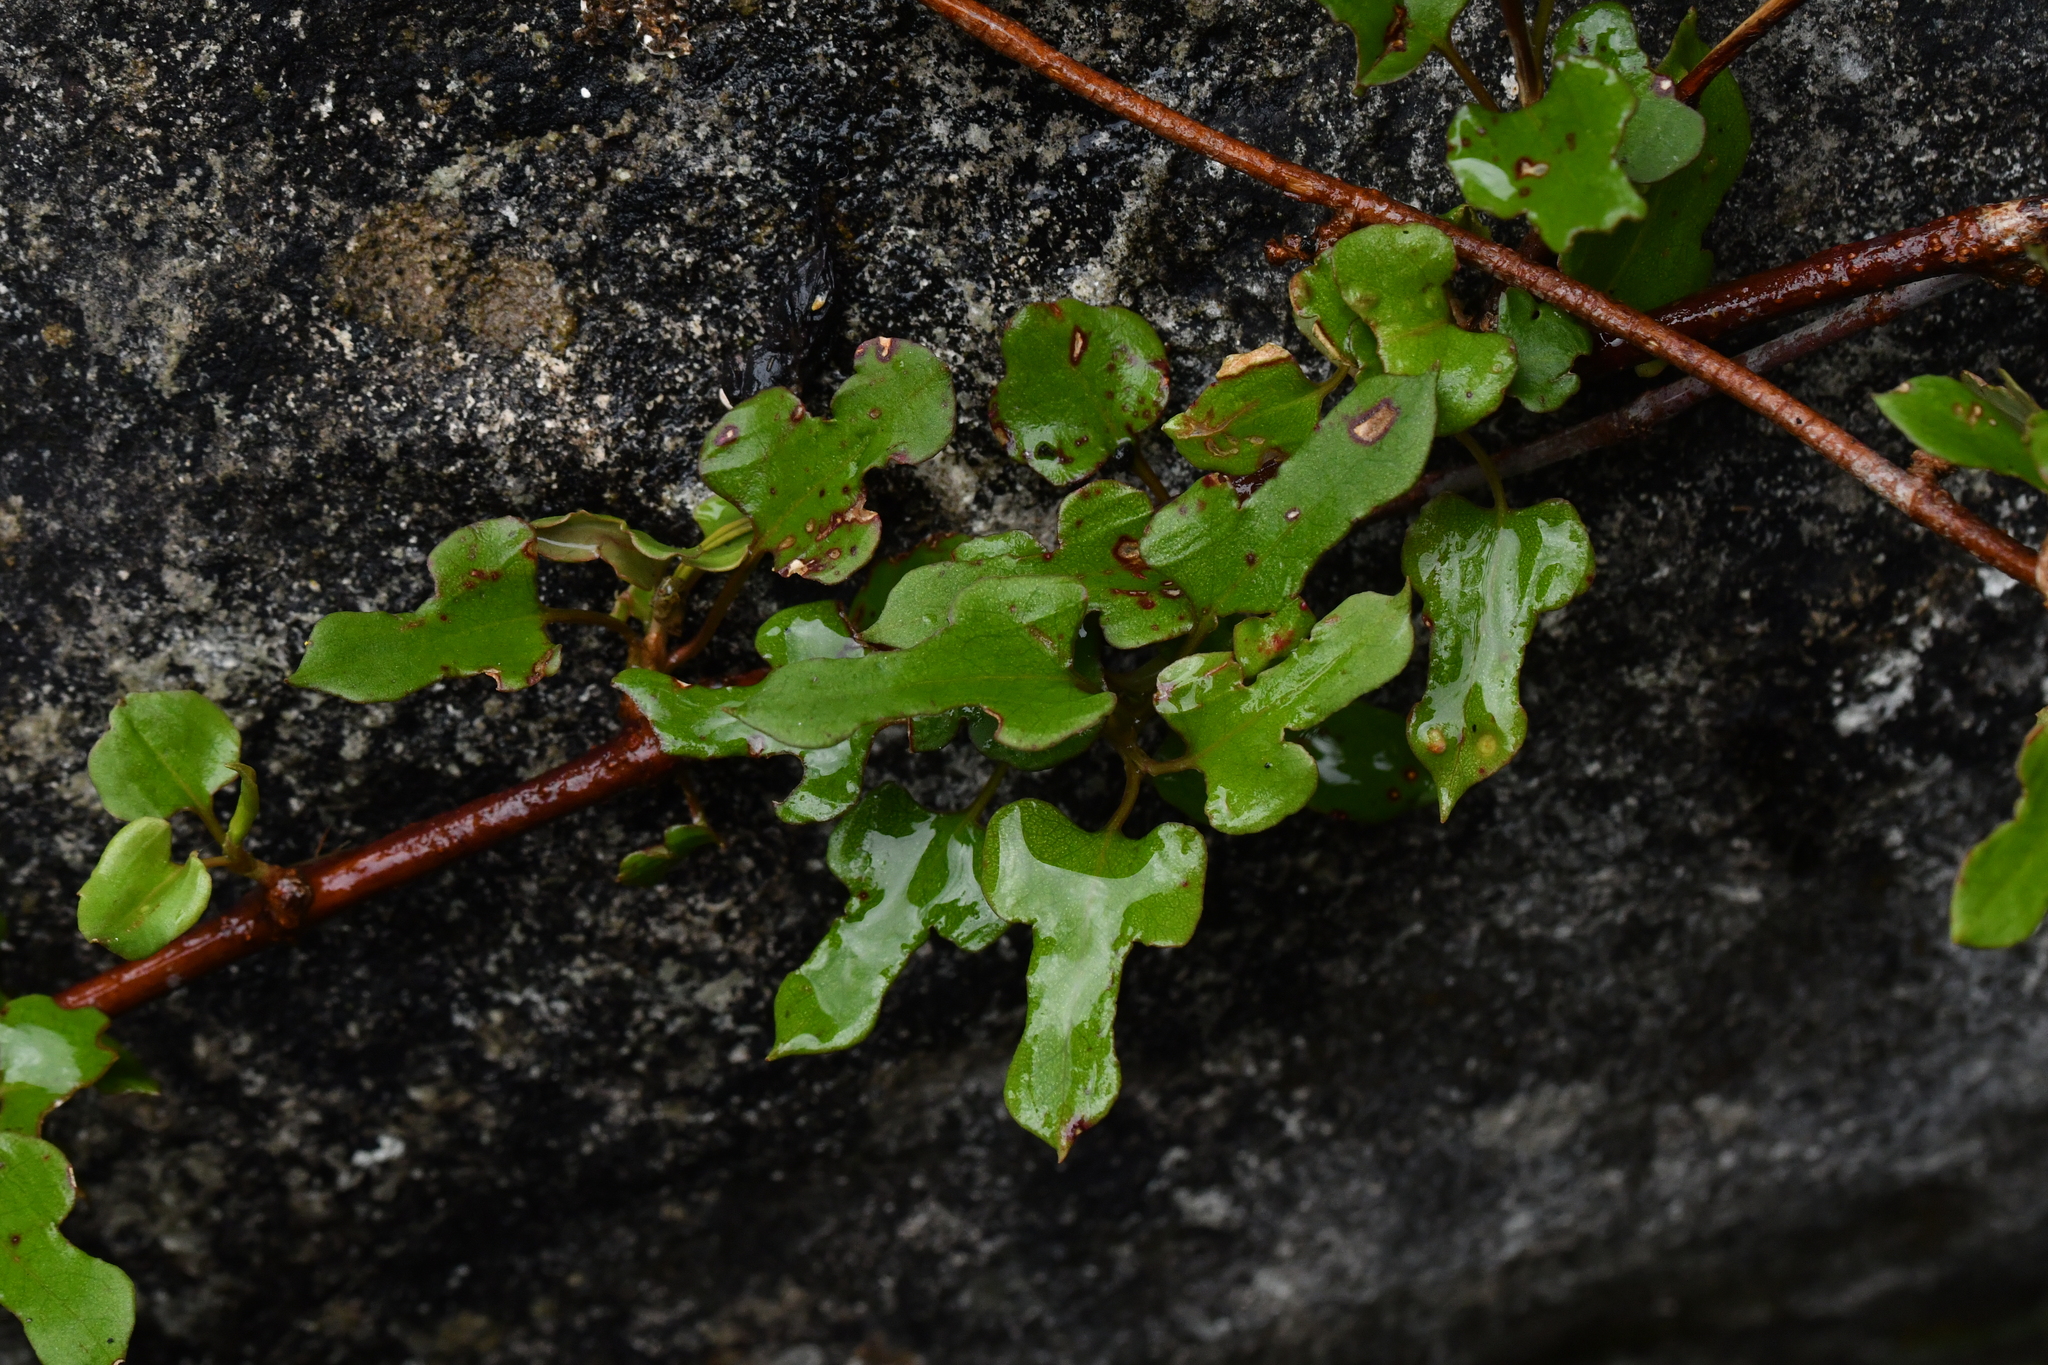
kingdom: Plantae
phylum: Tracheophyta
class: Magnoliopsida
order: Caryophyllales
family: Polygonaceae
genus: Muehlenbeckia
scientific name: Muehlenbeckia australis
